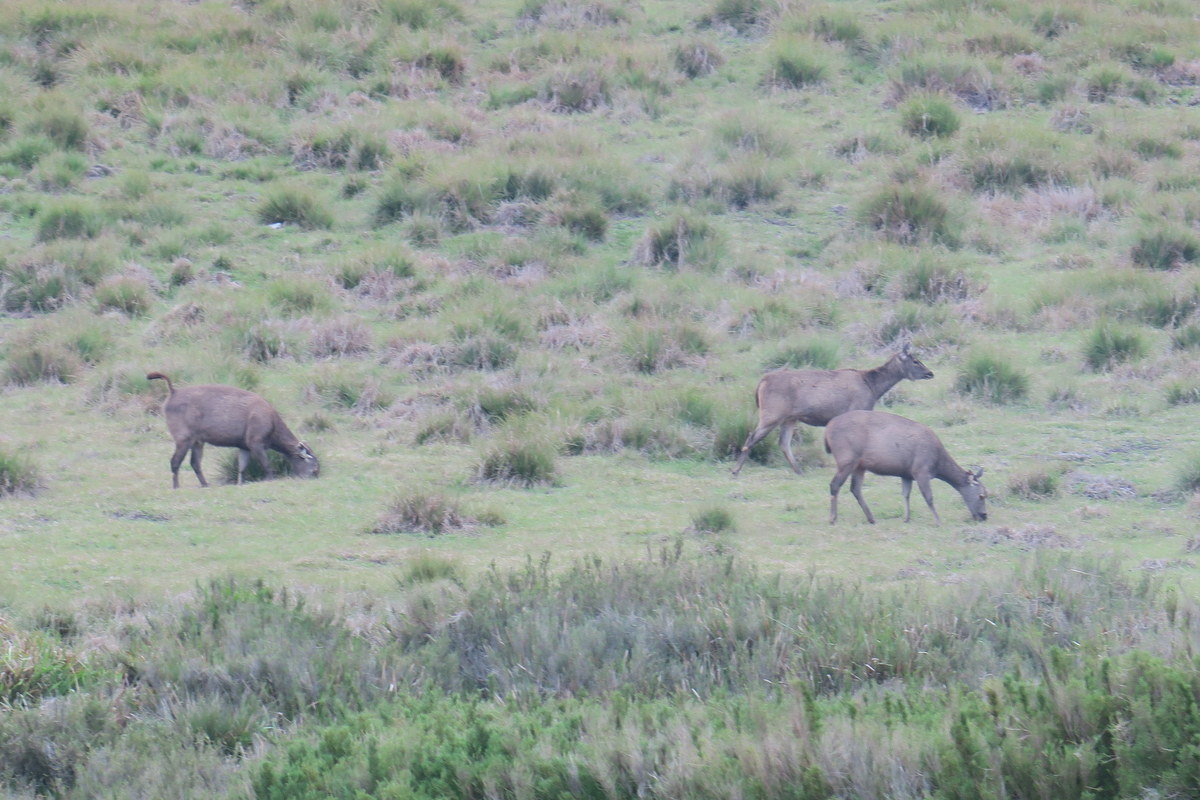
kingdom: Animalia
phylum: Chordata
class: Mammalia
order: Artiodactyla
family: Cervidae
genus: Rusa
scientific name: Rusa unicolor
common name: Sambar
